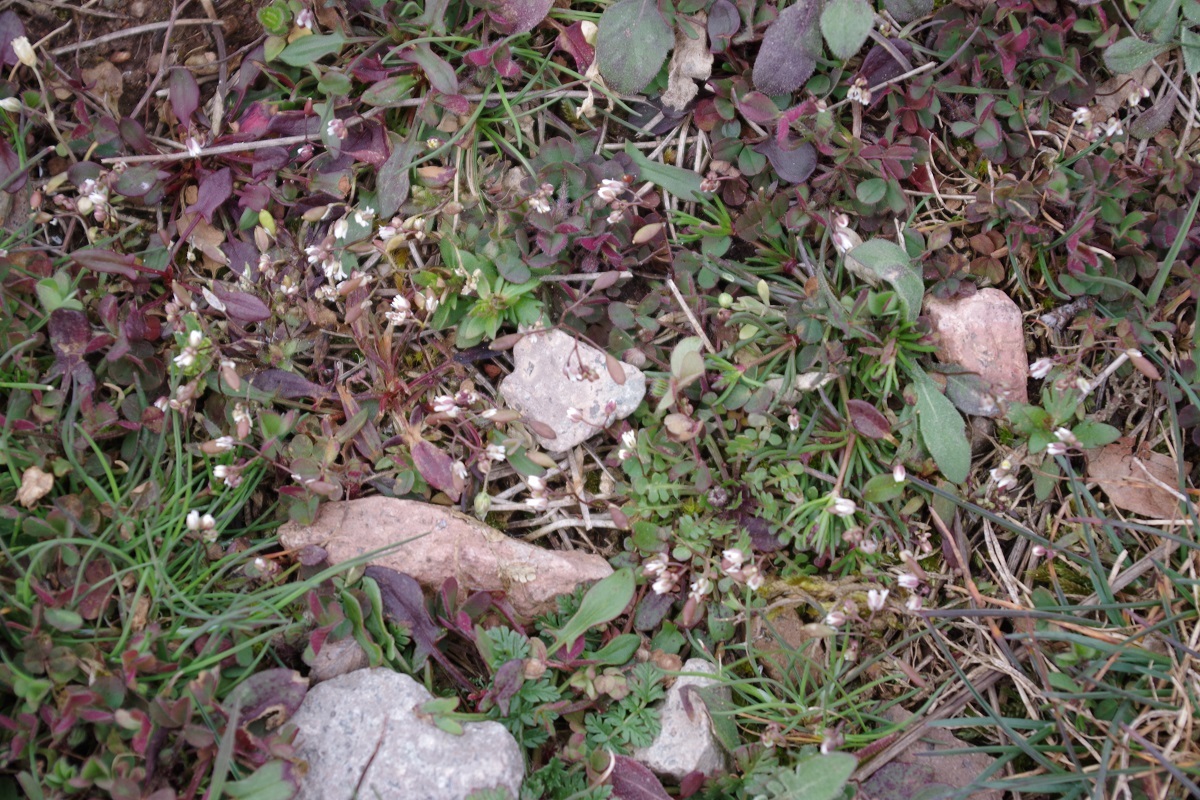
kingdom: Plantae
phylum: Tracheophyta
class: Magnoliopsida
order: Brassicales
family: Brassicaceae
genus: Draba
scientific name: Draba
